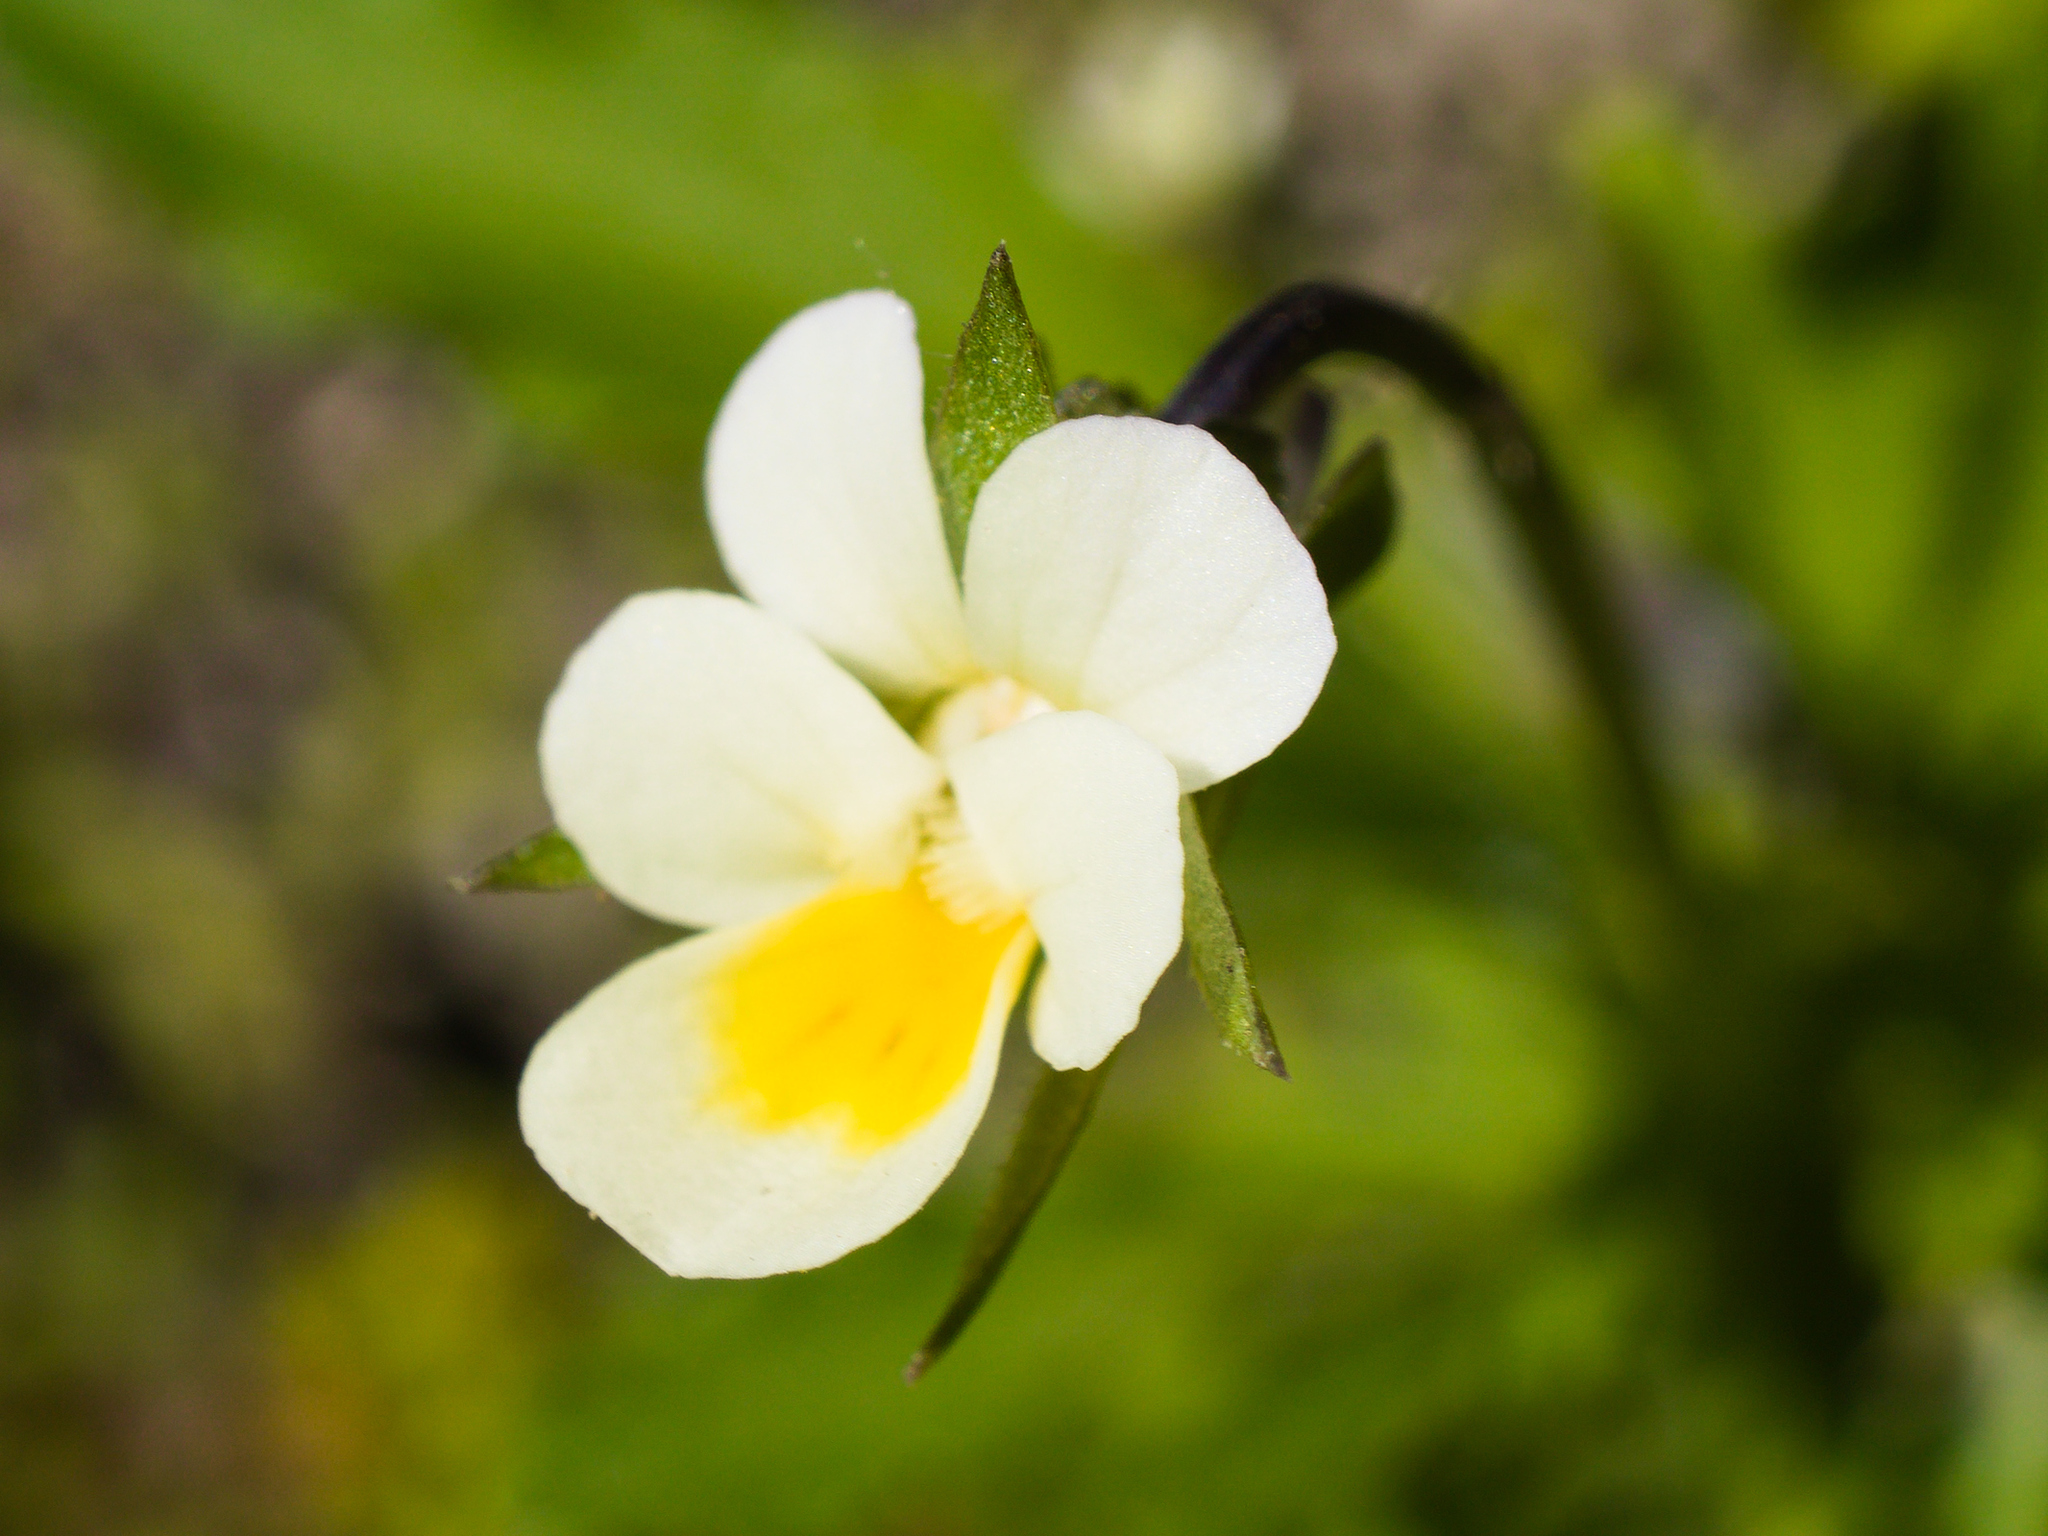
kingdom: Plantae
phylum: Tracheophyta
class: Magnoliopsida
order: Malpighiales
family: Violaceae
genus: Viola
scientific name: Viola arvensis
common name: Field pansy
